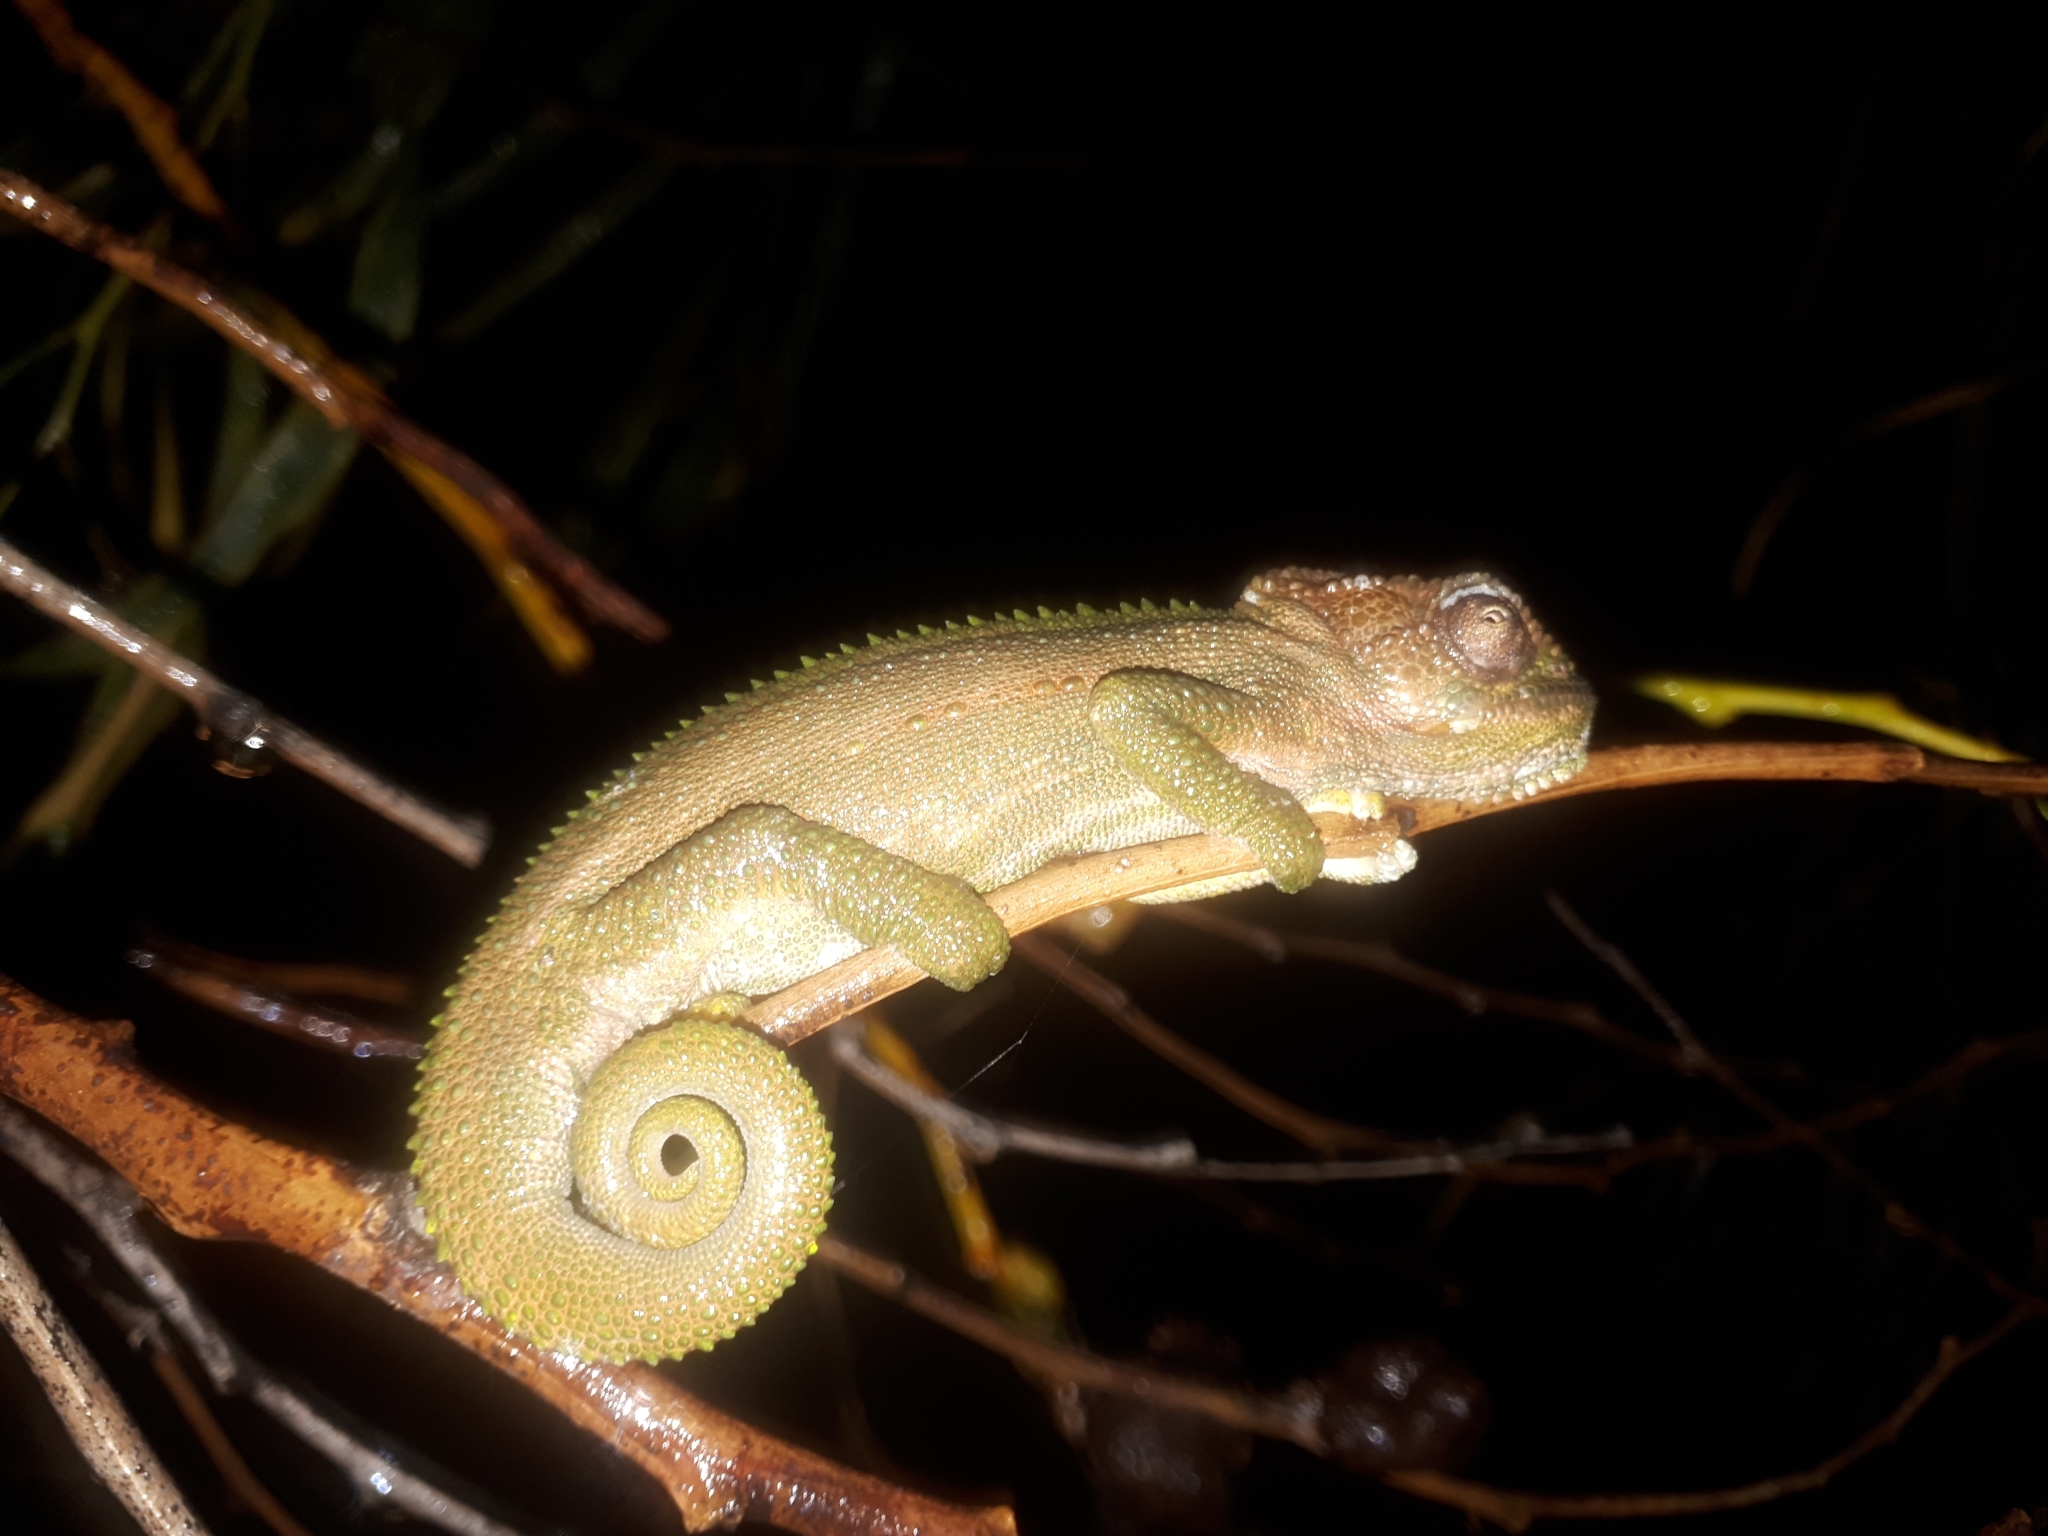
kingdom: Animalia
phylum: Chordata
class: Squamata
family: Chamaeleonidae
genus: Bradypodion
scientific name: Bradypodion pumilum
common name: Cape dwarf chameleon
